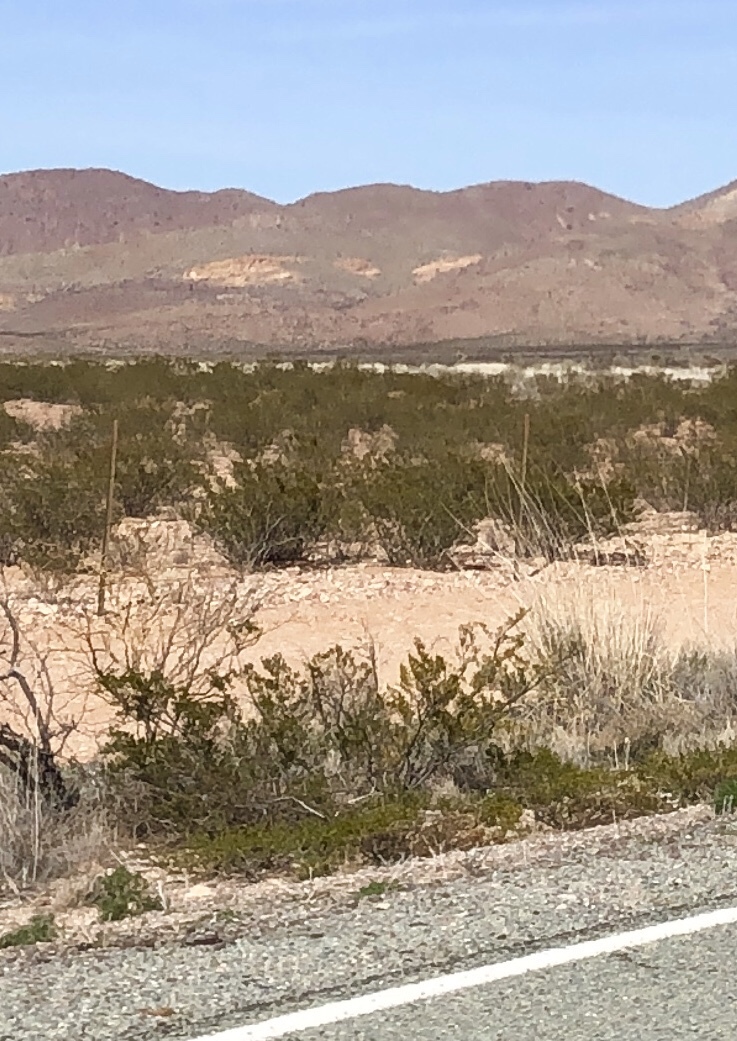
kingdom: Plantae
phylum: Tracheophyta
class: Magnoliopsida
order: Zygophyllales
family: Zygophyllaceae
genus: Larrea
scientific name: Larrea tridentata
